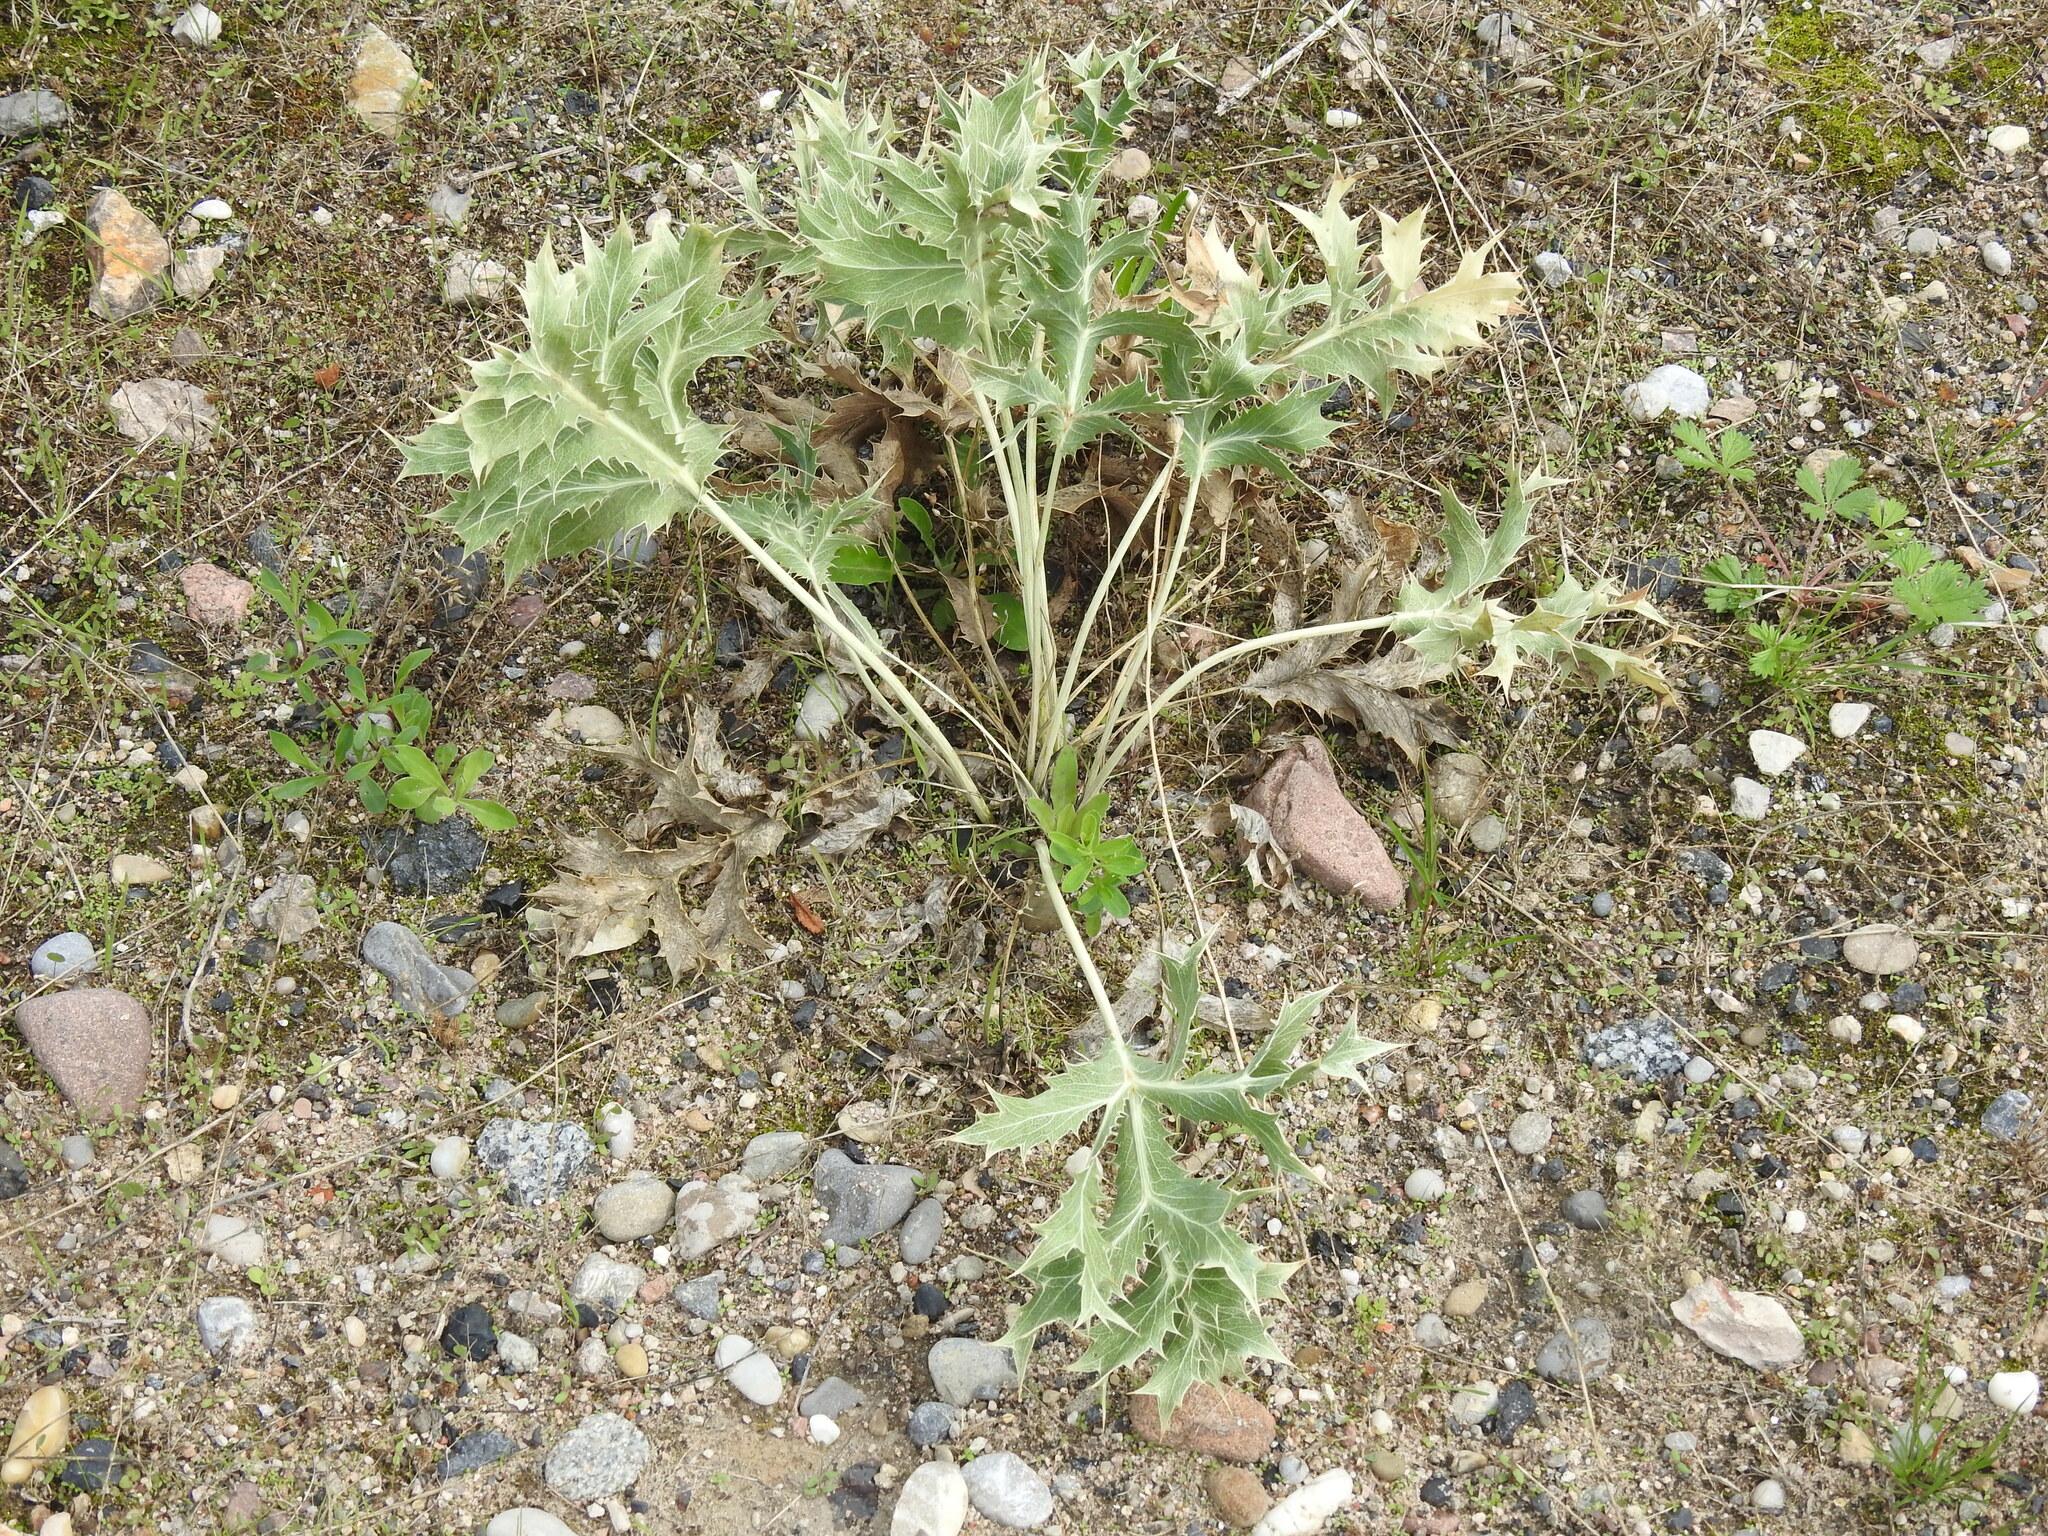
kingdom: Plantae
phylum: Tracheophyta
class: Magnoliopsida
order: Apiales
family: Apiaceae
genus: Eryngium
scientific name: Eryngium campestre
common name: Field eryngo
